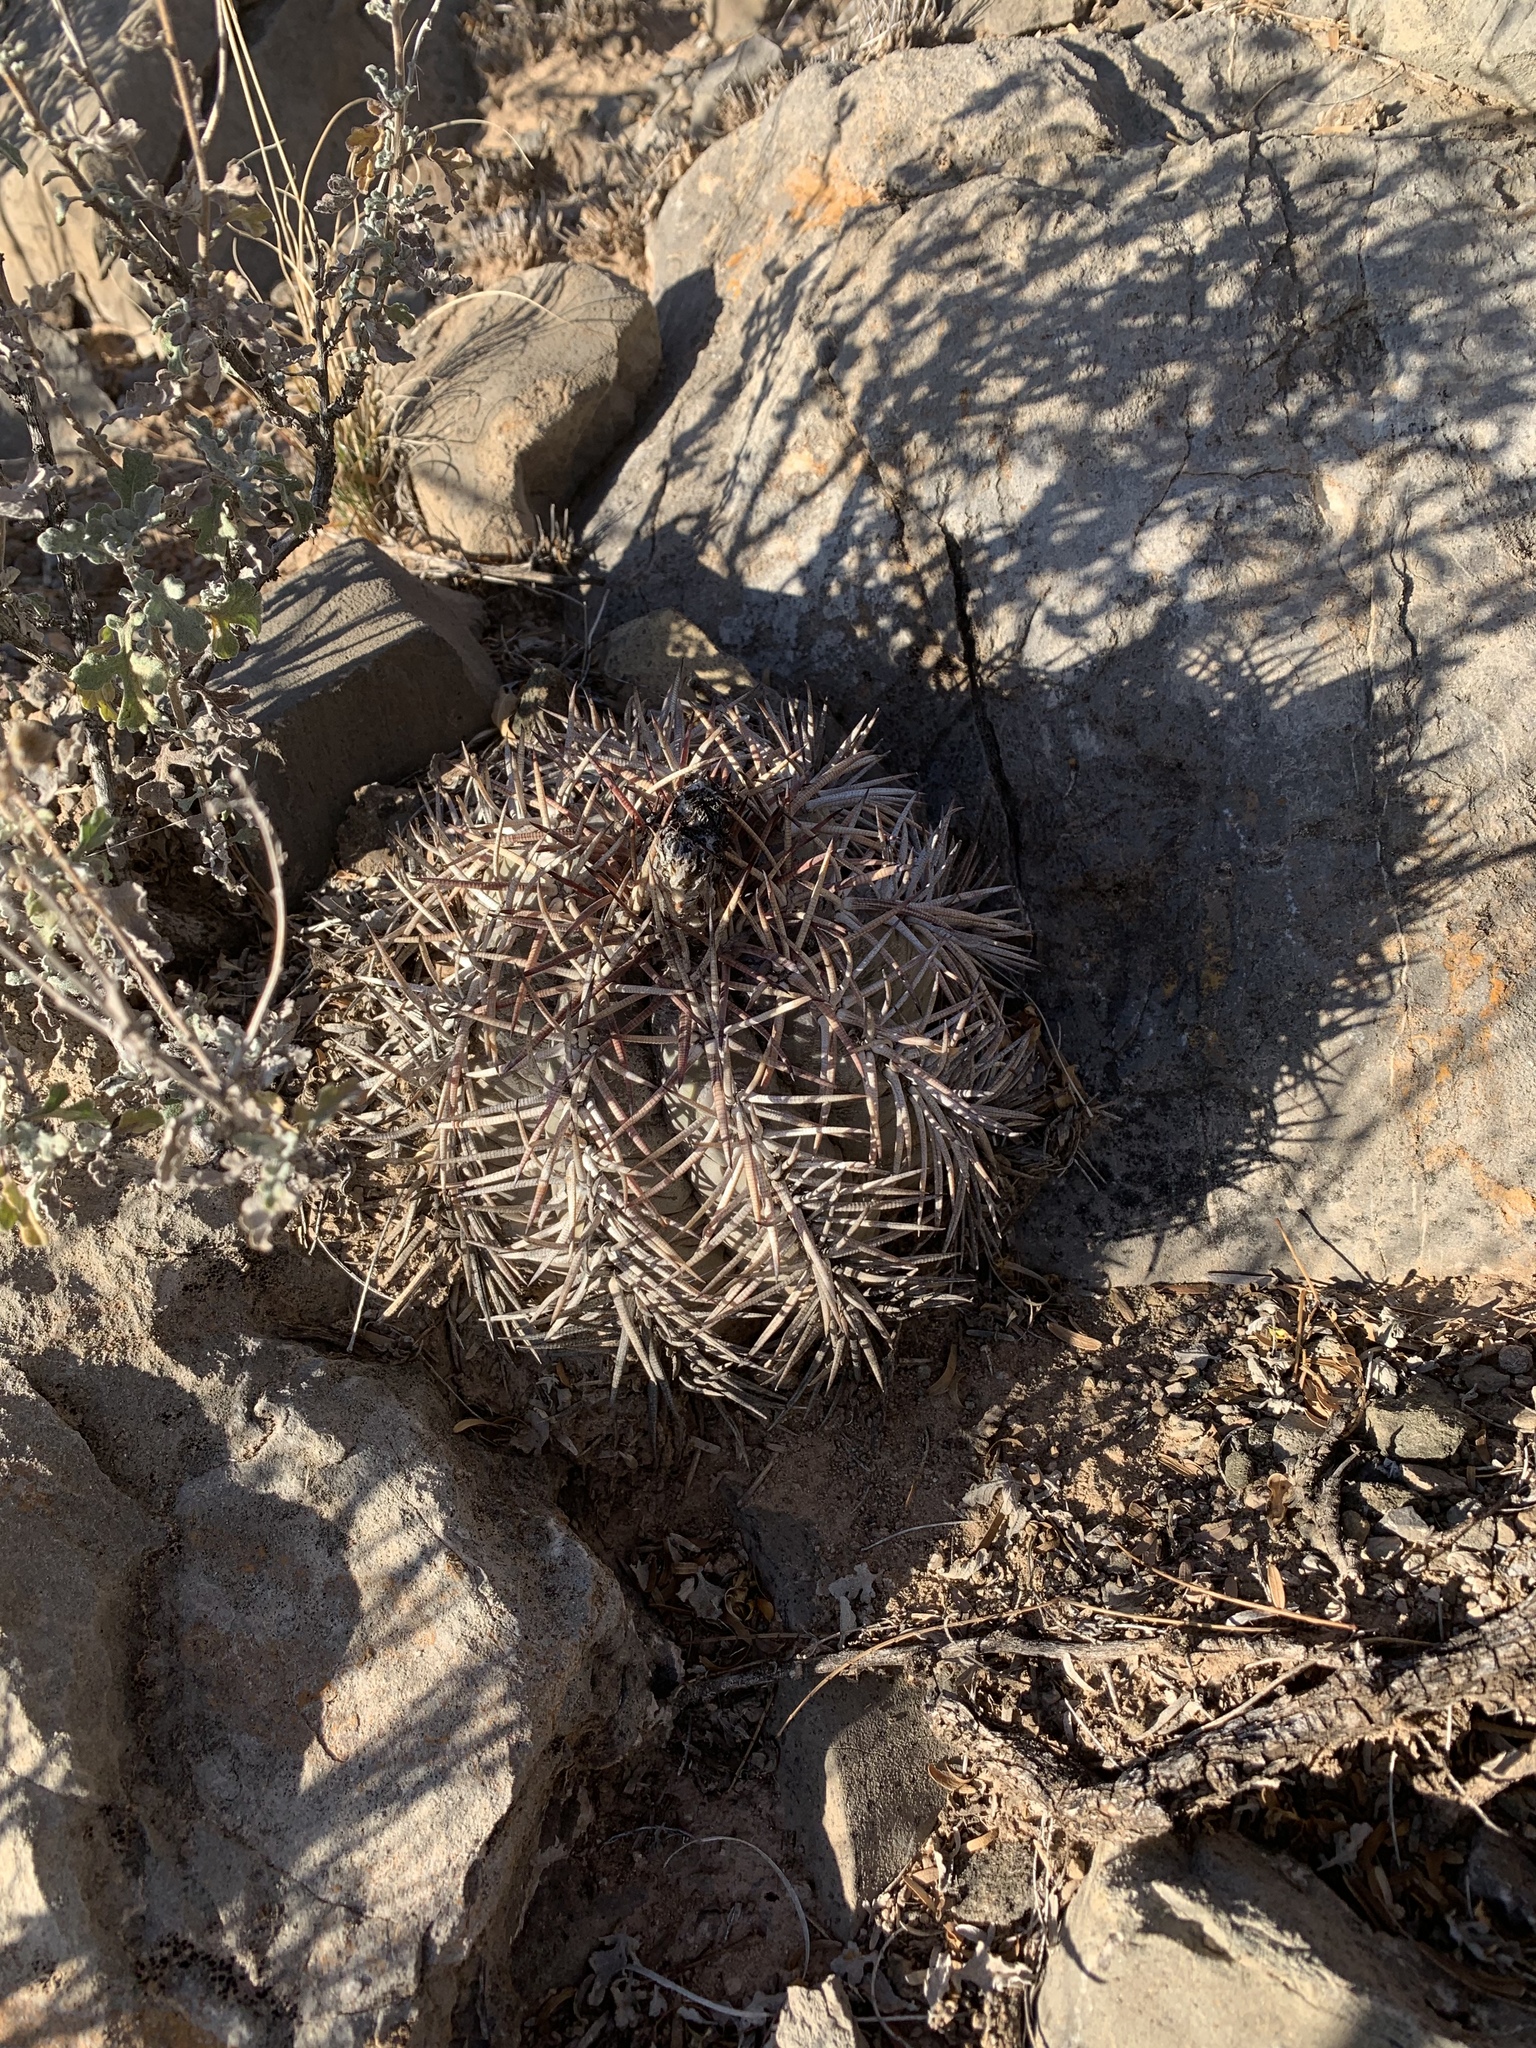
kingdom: Plantae
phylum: Tracheophyta
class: Magnoliopsida
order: Caryophyllales
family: Cactaceae
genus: Echinocactus
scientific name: Echinocactus horizonthalonius
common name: Devilshead
